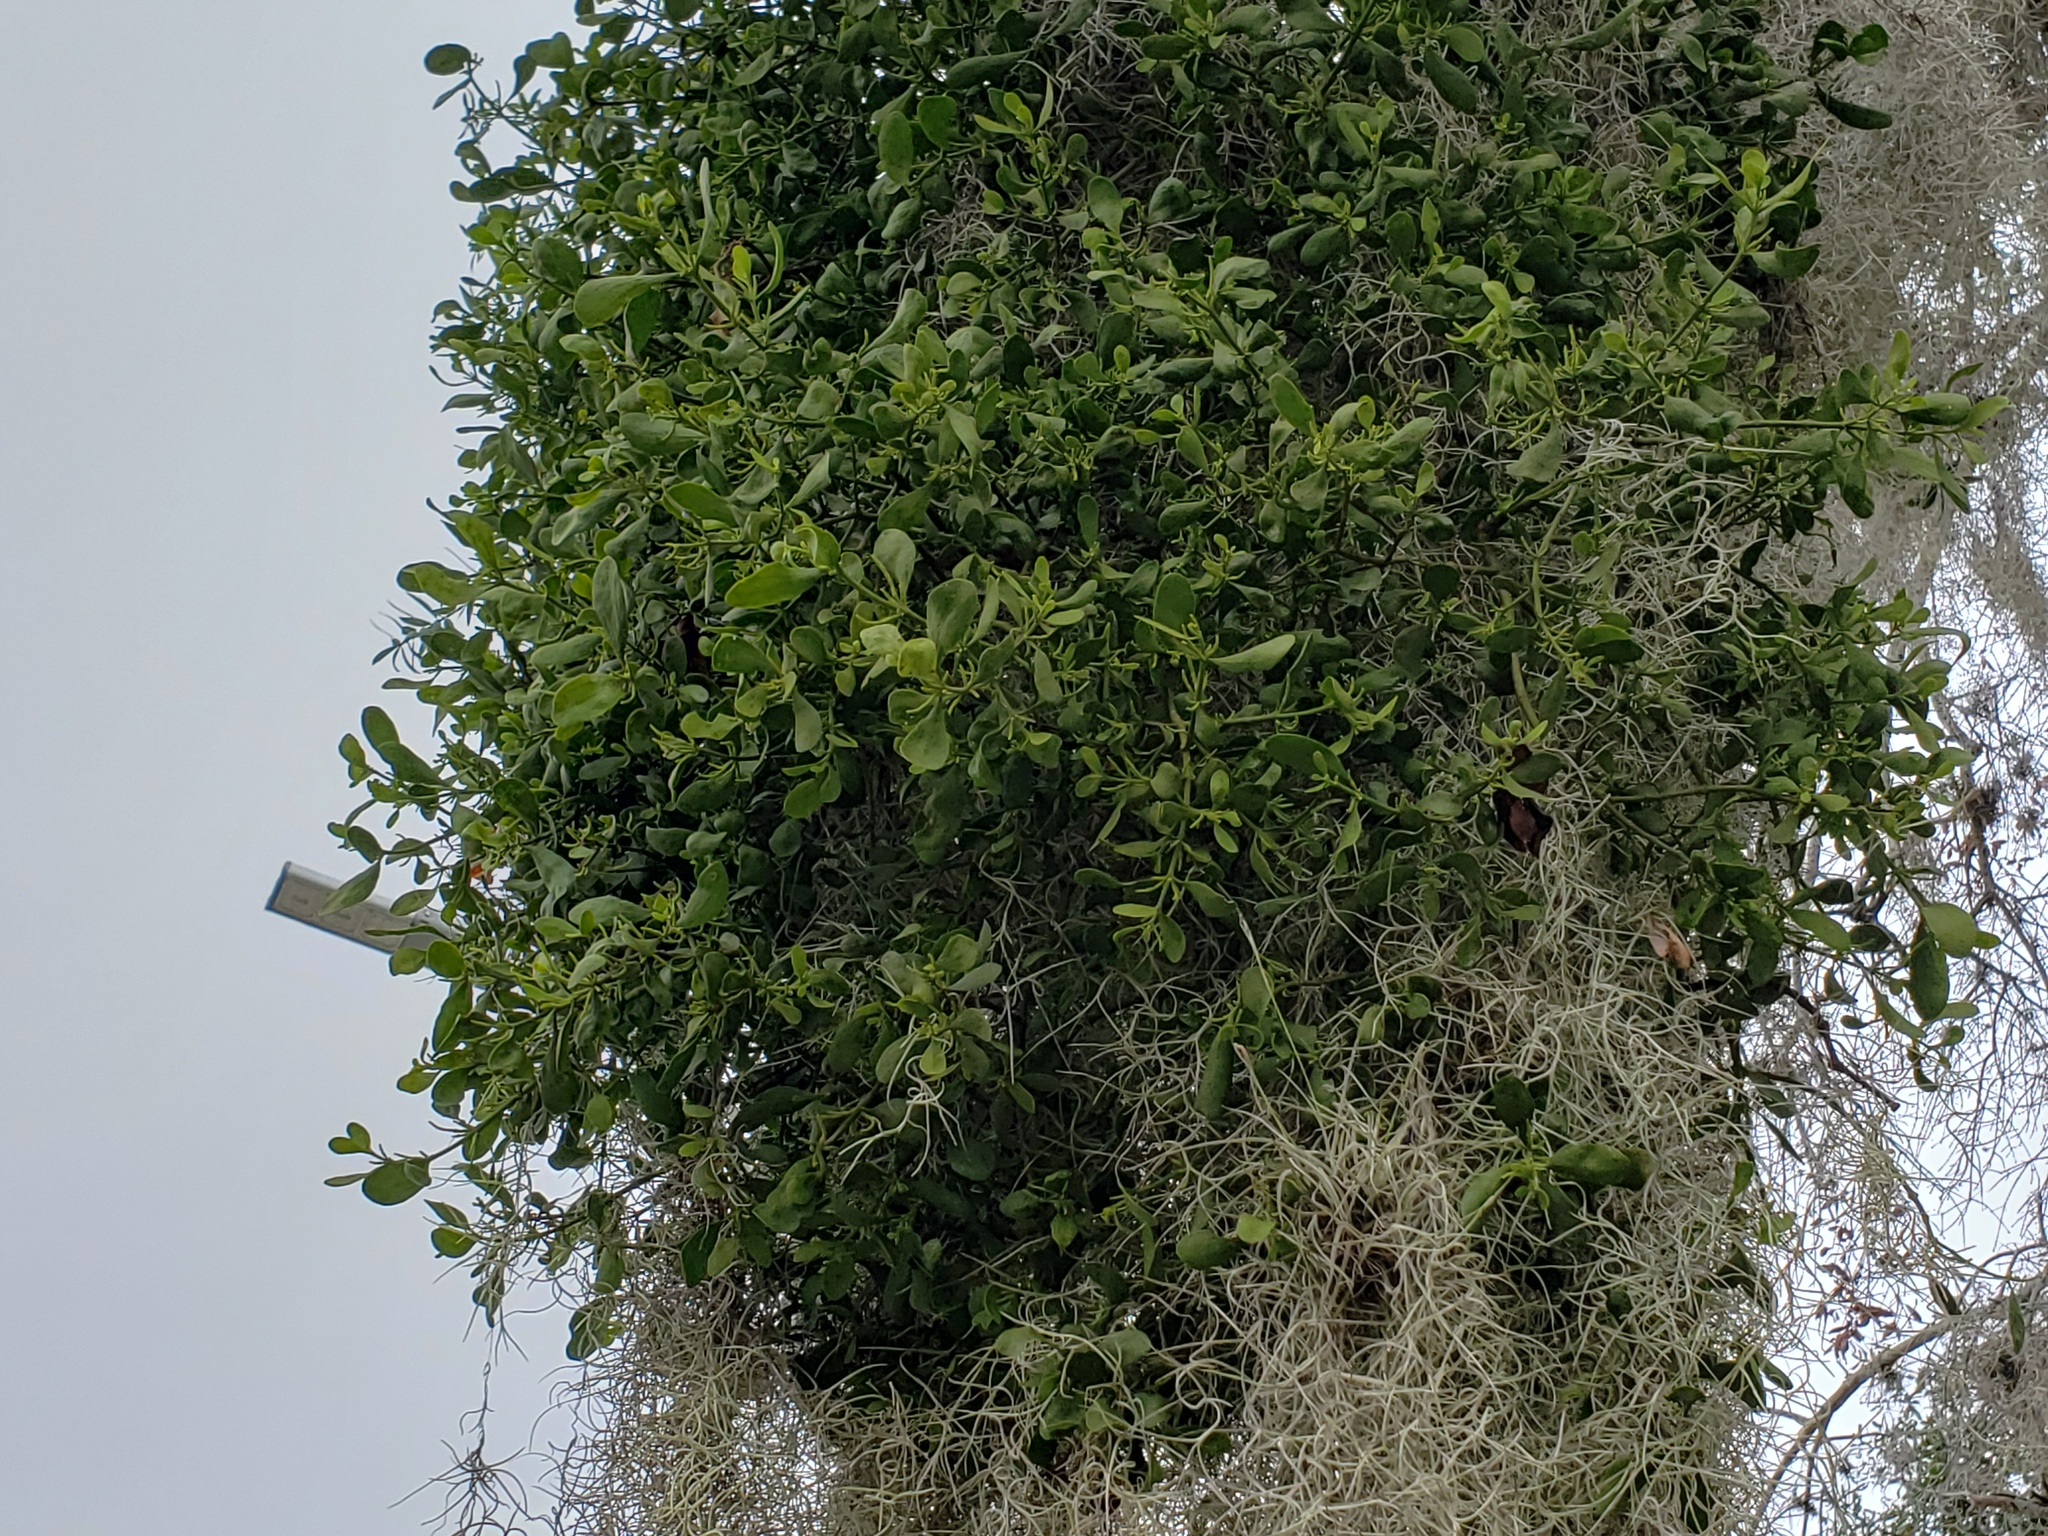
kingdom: Plantae
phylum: Tracheophyta
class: Magnoliopsida
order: Santalales
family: Viscaceae
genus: Phoradendron
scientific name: Phoradendron leucarpum
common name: Pacific mistletoe
